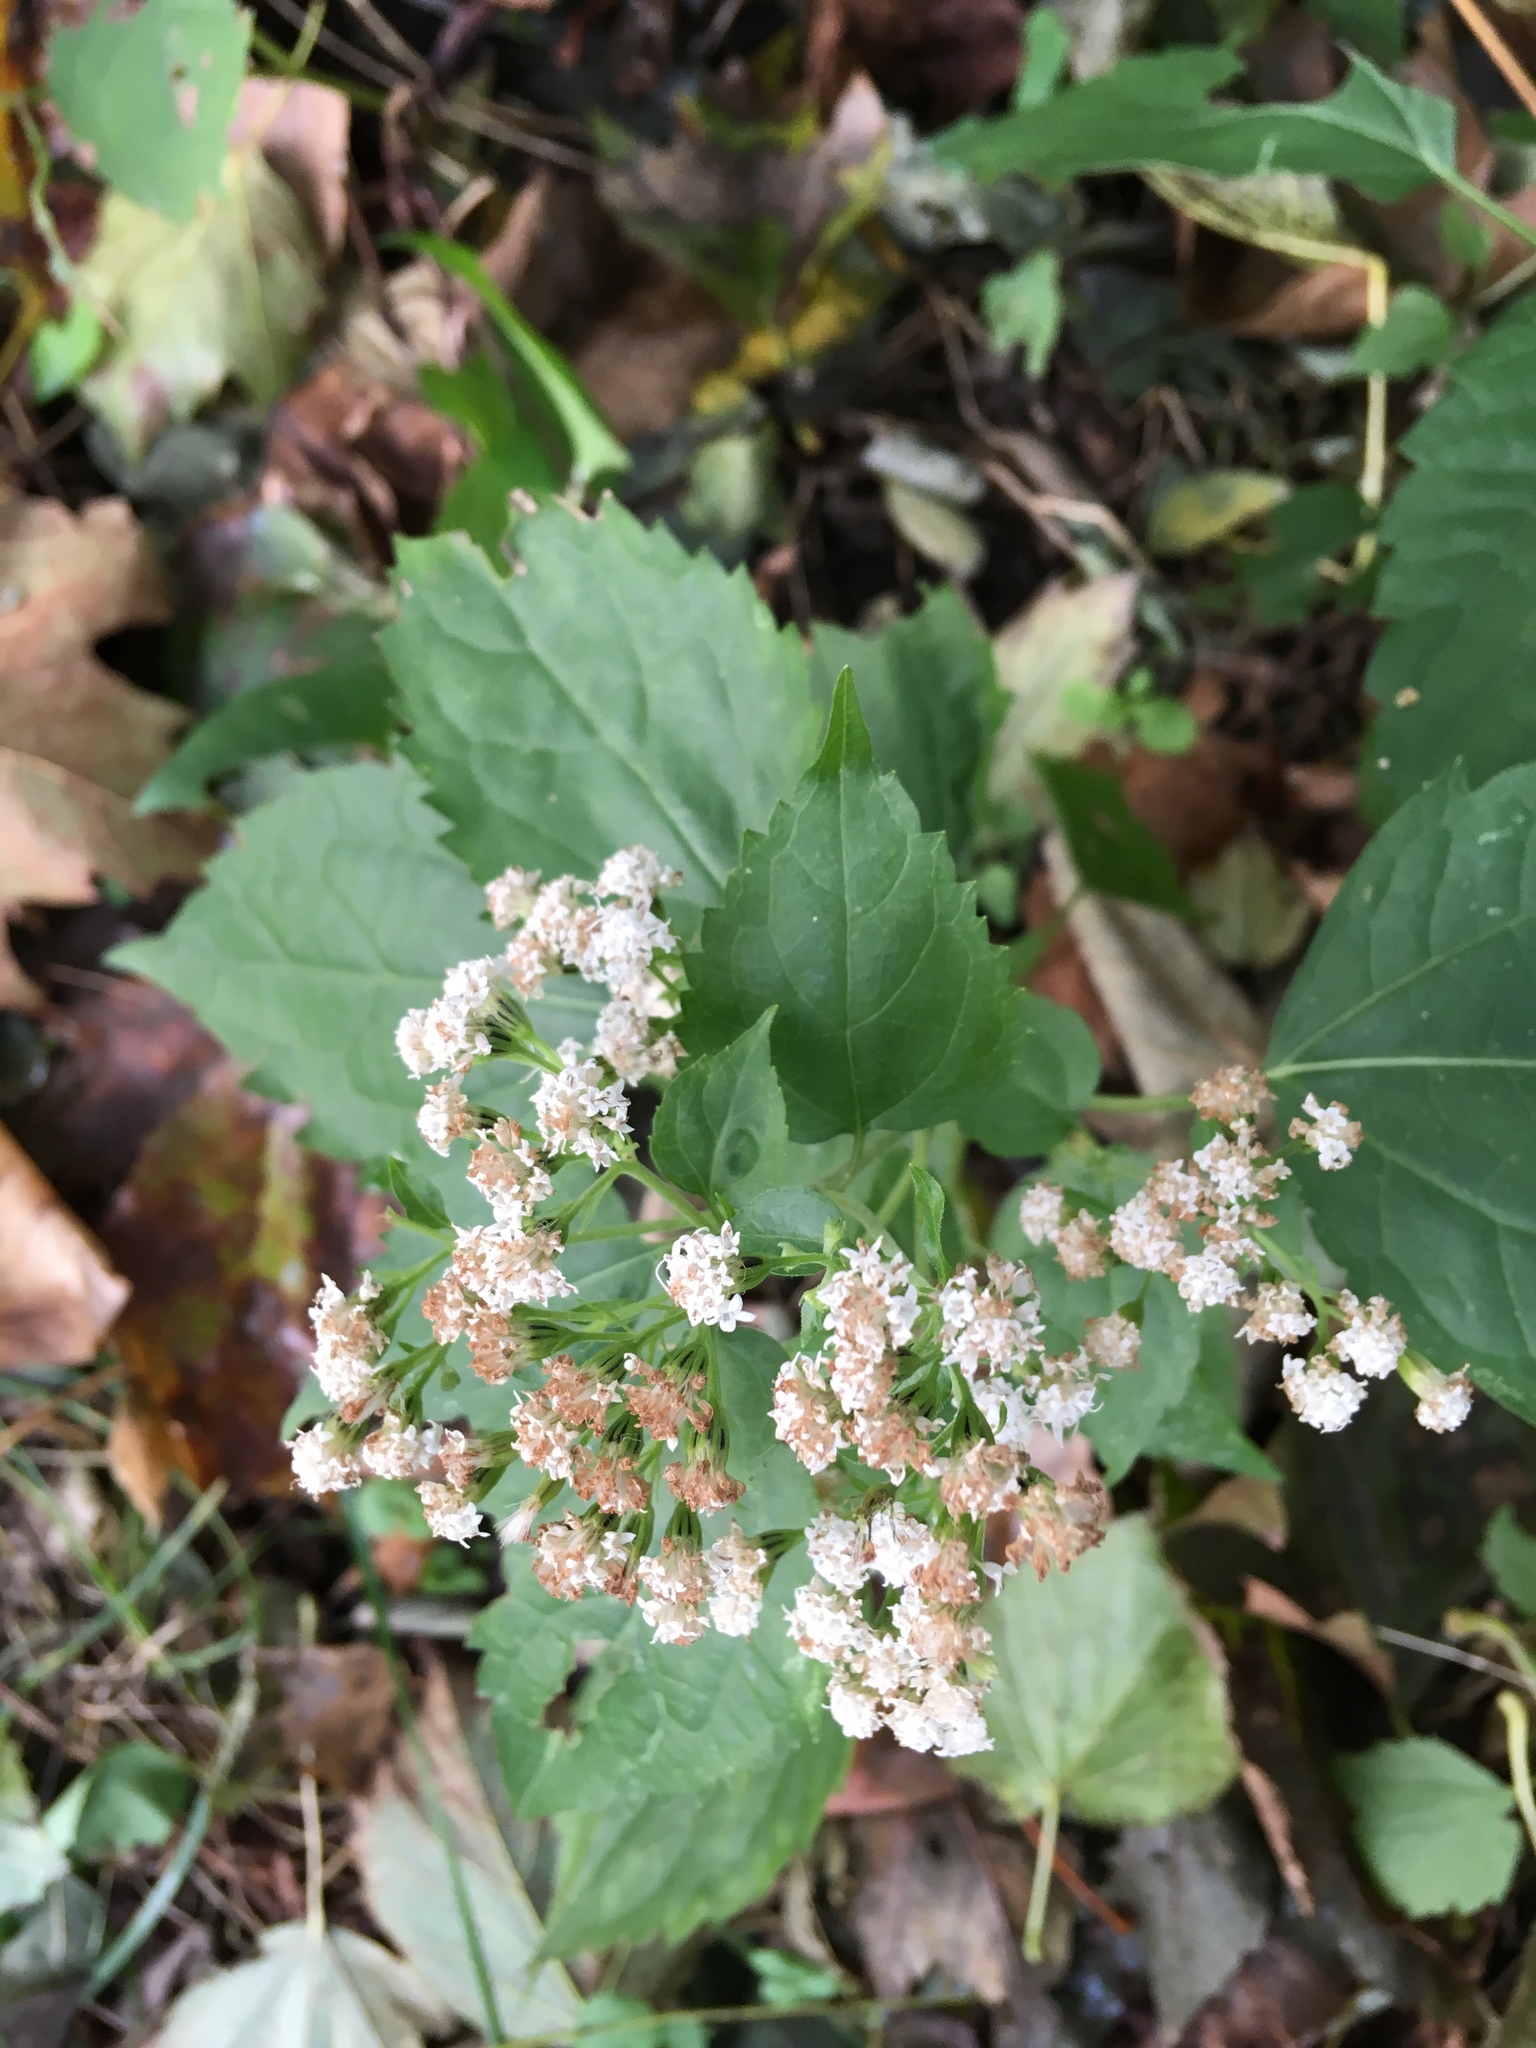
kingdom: Plantae
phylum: Tracheophyta
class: Magnoliopsida
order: Asterales
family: Asteraceae
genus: Ageratina
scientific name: Ageratina altissima
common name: White snakeroot
